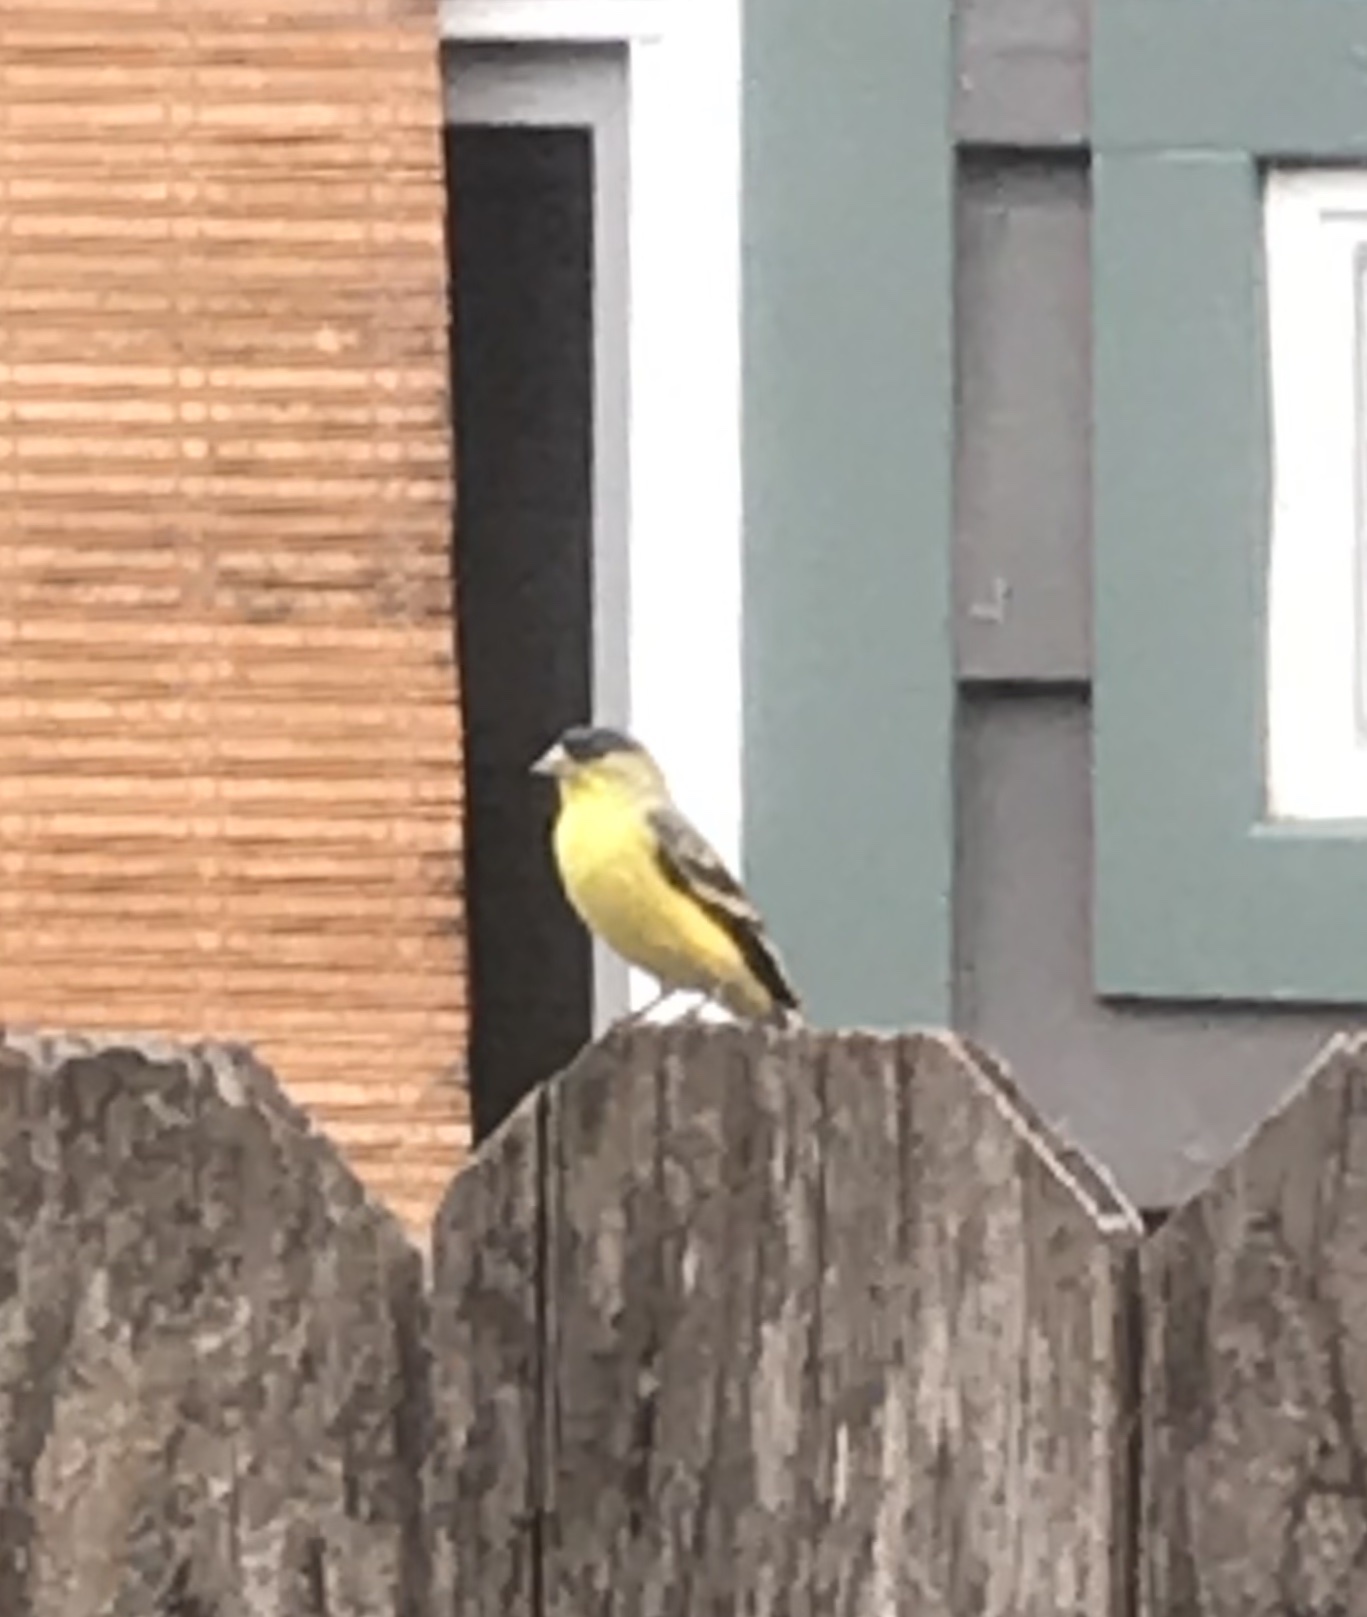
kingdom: Animalia
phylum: Chordata
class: Aves
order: Passeriformes
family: Fringillidae
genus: Spinus
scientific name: Spinus psaltria
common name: Lesser goldfinch
